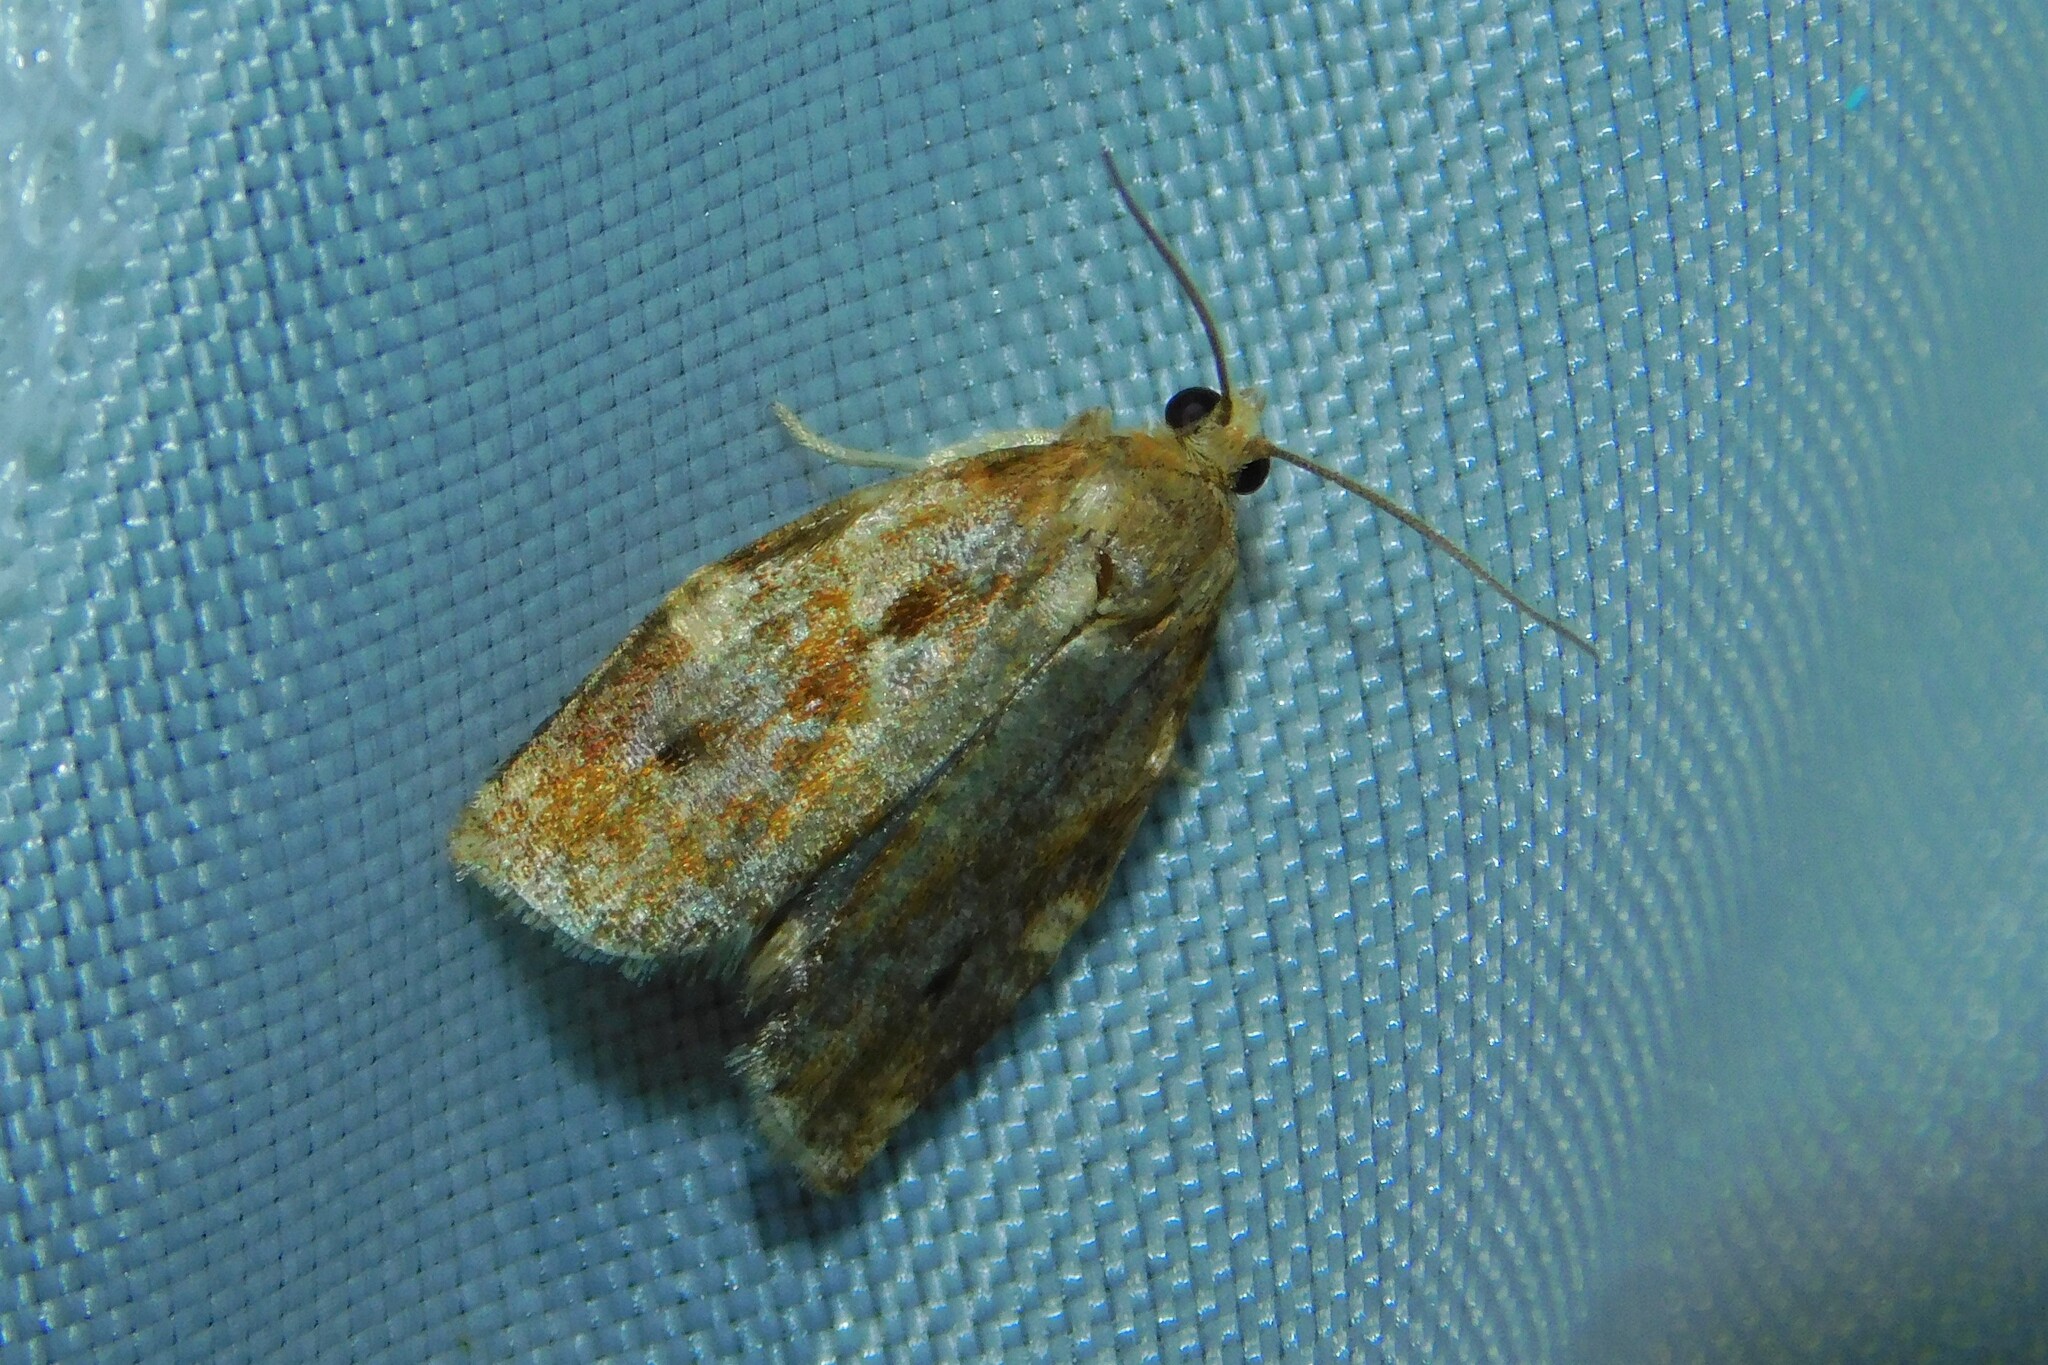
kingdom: Animalia
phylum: Arthropoda
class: Insecta
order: Lepidoptera
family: Tortricidae
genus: Archips
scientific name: Archips xylosteana
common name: Variegated golden tortrix
